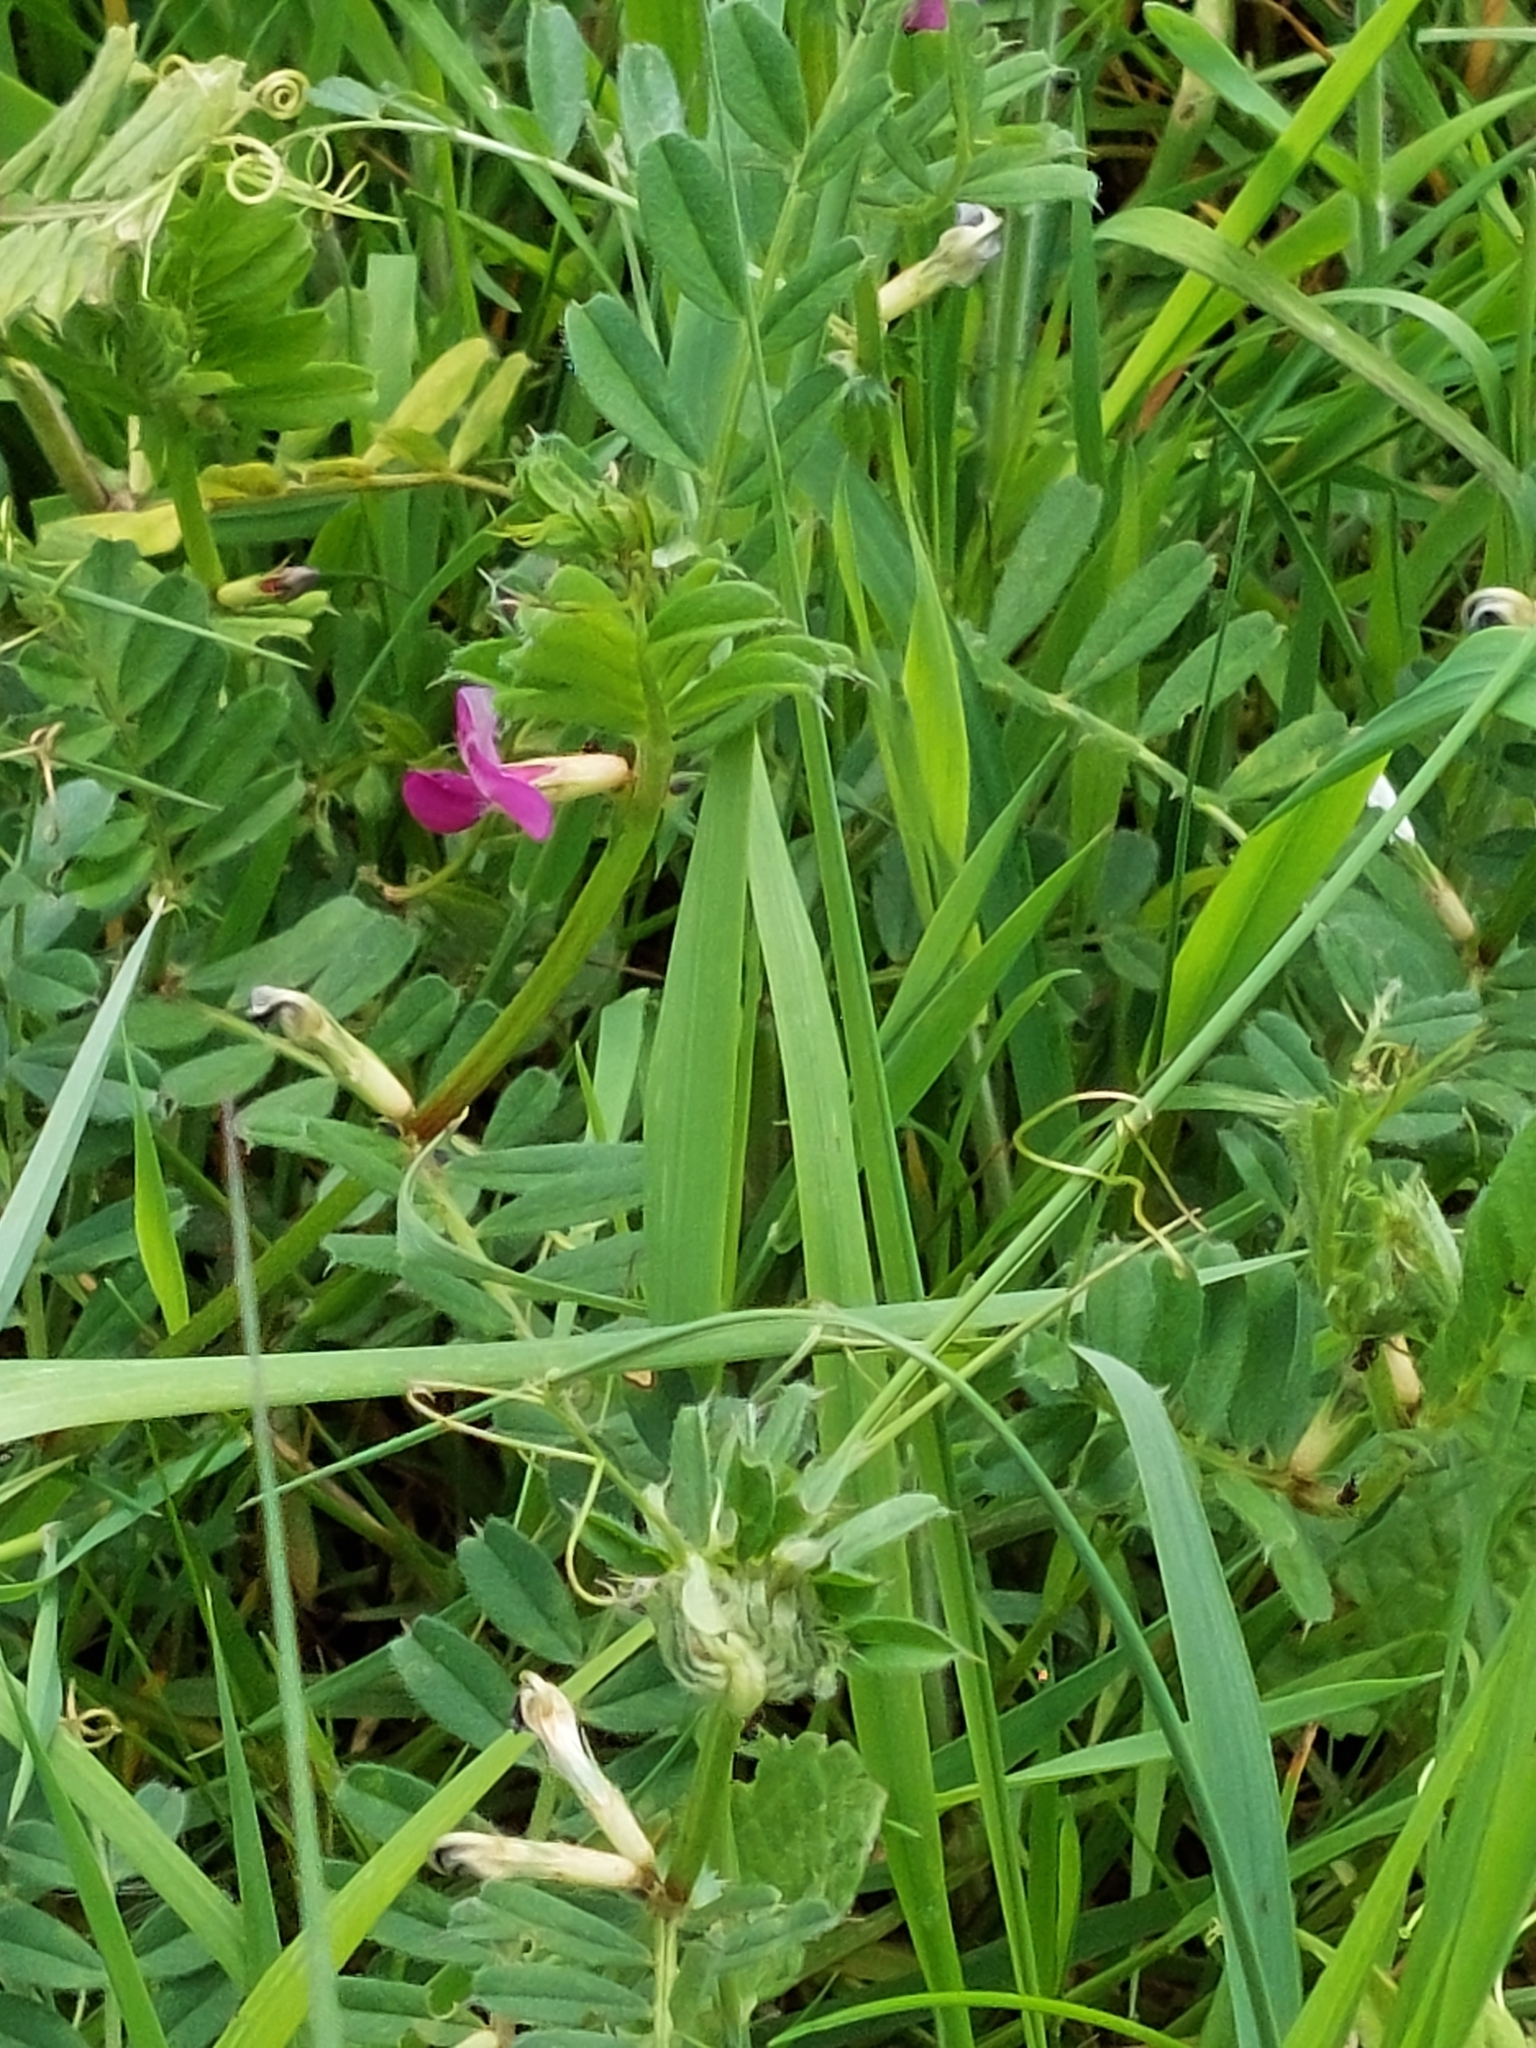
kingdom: Plantae
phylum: Tracheophyta
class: Magnoliopsida
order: Fabales
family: Fabaceae
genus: Vicia
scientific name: Vicia sativa
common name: Garden vetch
